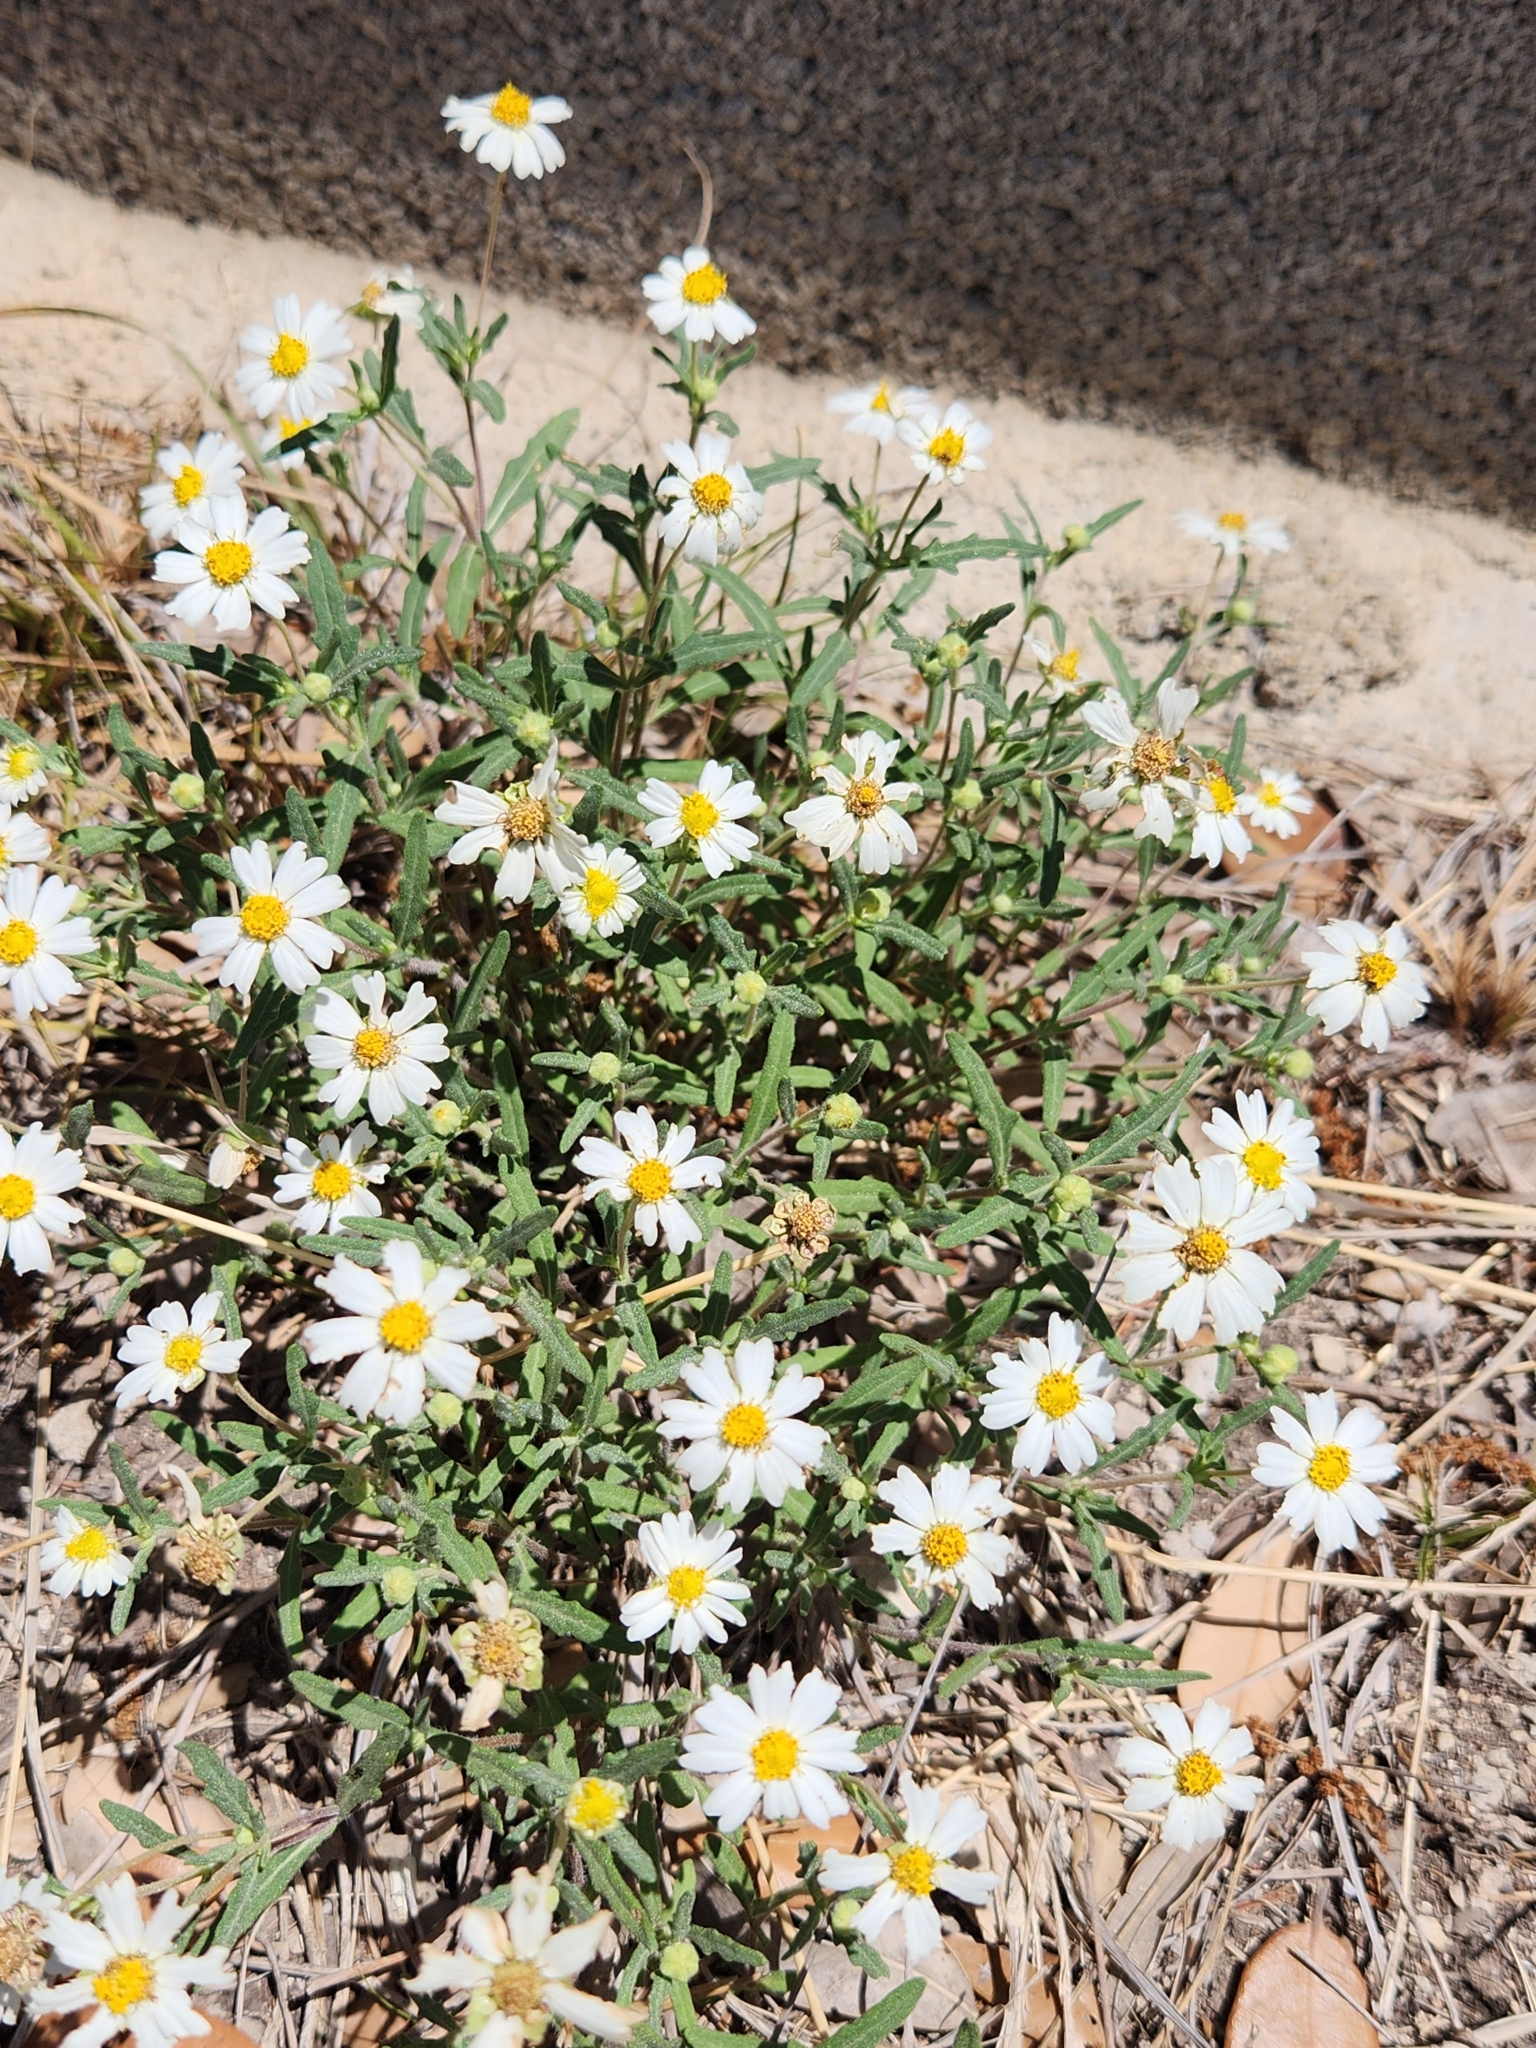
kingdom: Plantae
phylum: Tracheophyta
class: Magnoliopsida
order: Asterales
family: Asteraceae
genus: Melampodium
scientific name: Melampodium leucanthum
